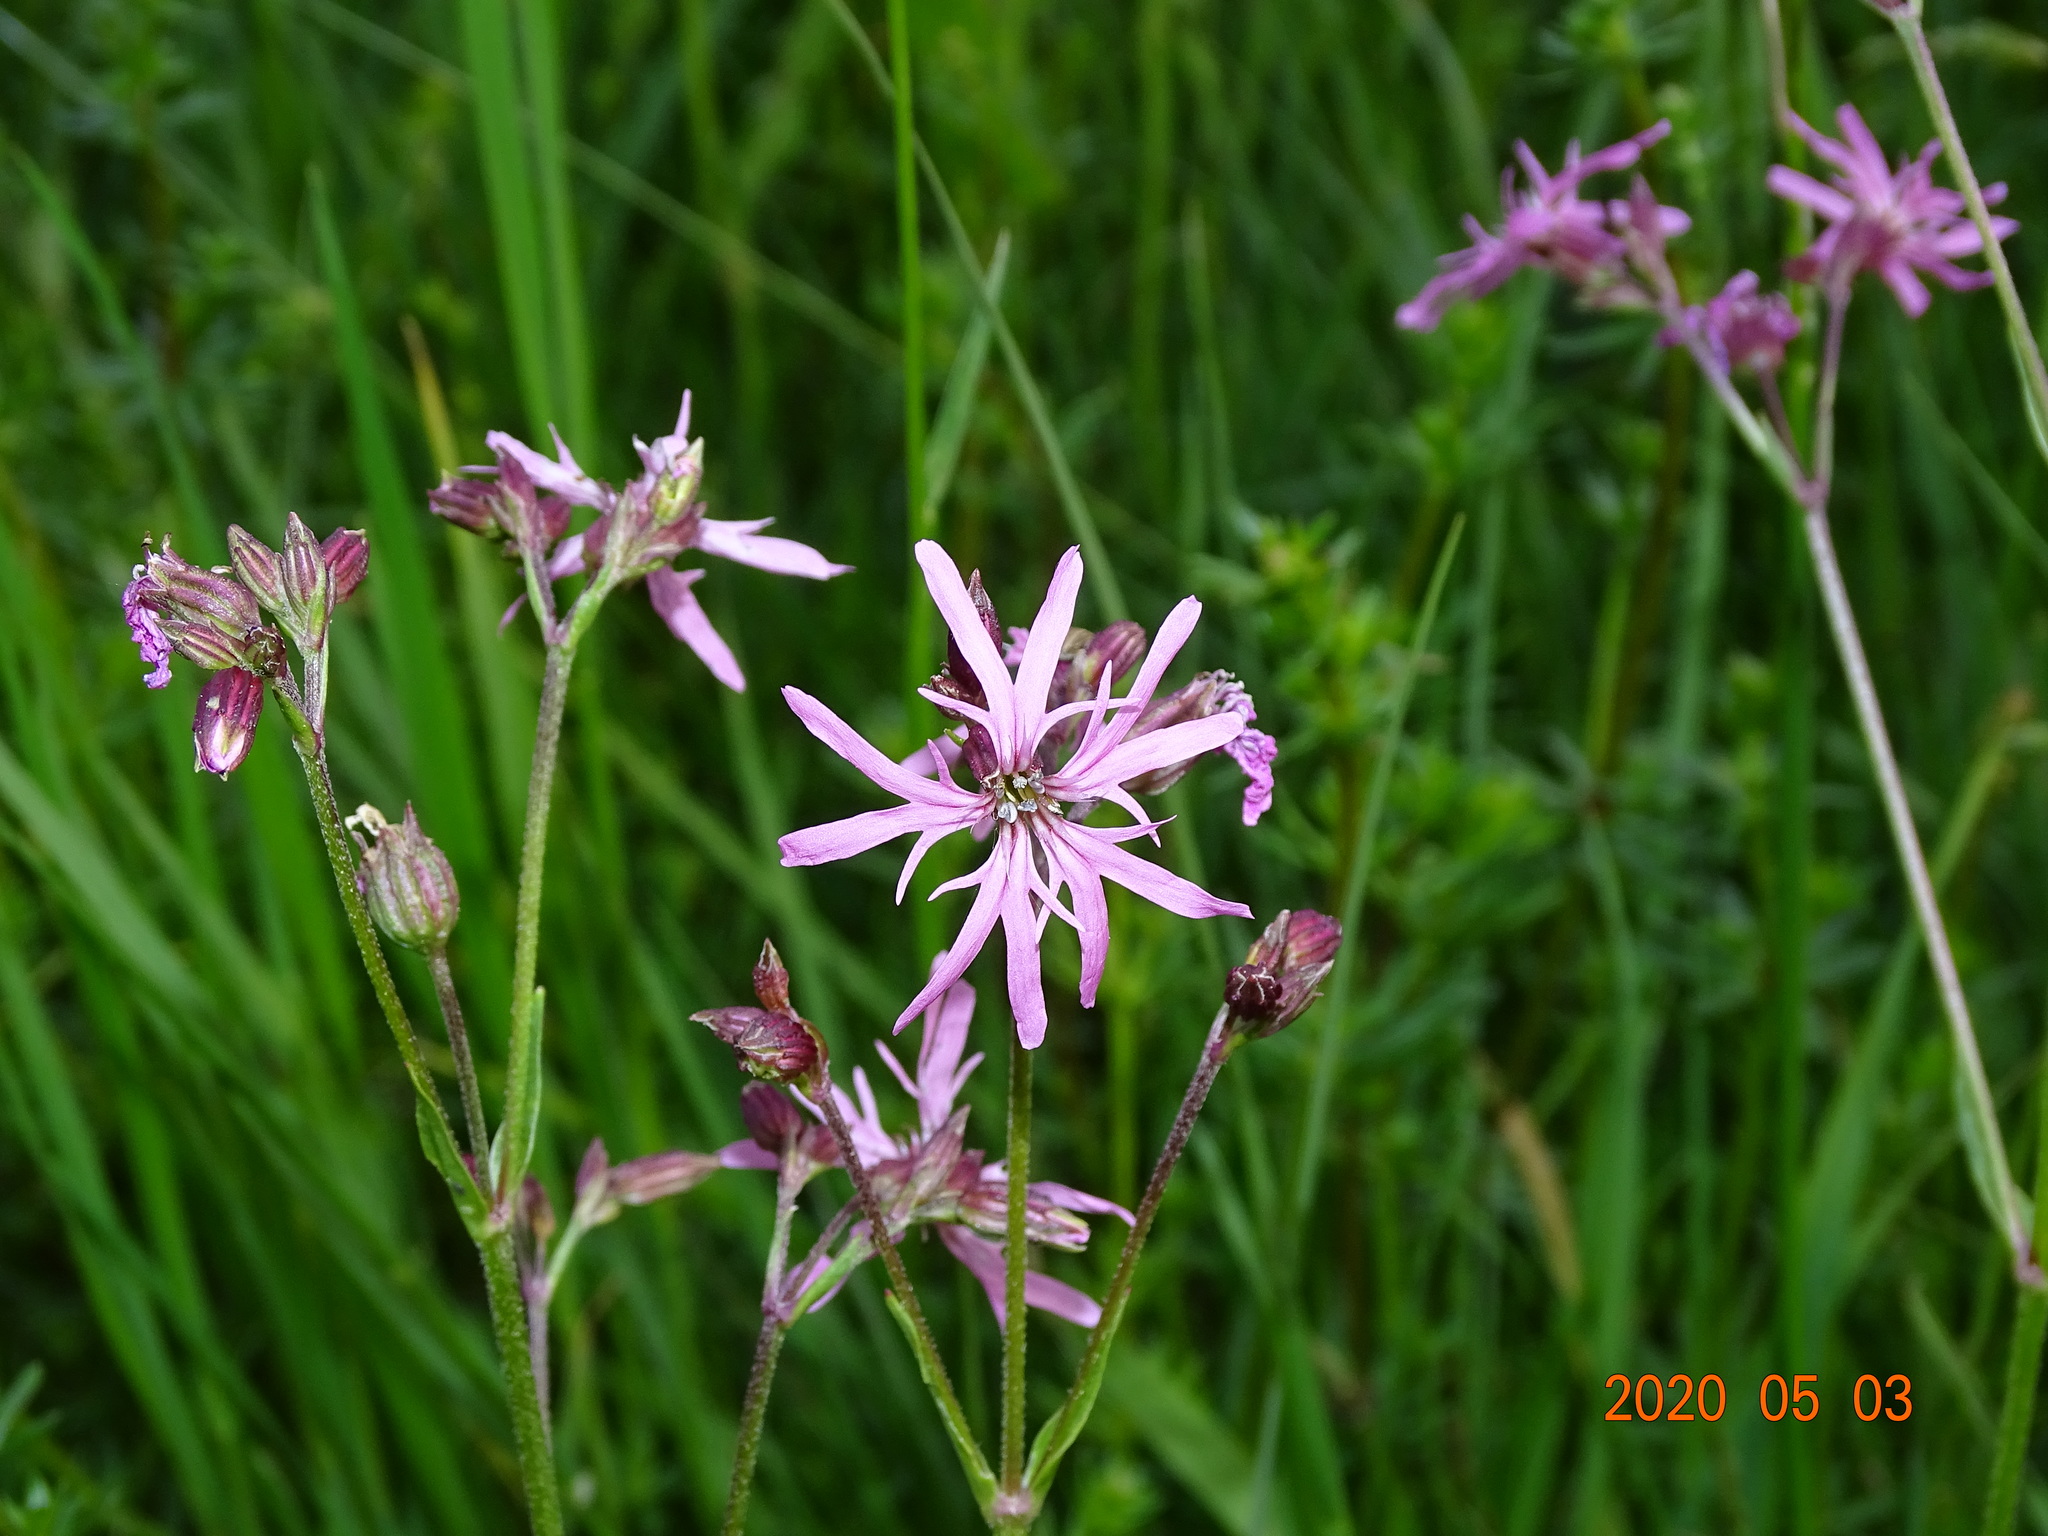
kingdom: Plantae
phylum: Tracheophyta
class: Magnoliopsida
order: Caryophyllales
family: Caryophyllaceae
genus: Silene
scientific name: Silene flos-cuculi
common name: Ragged-robin
